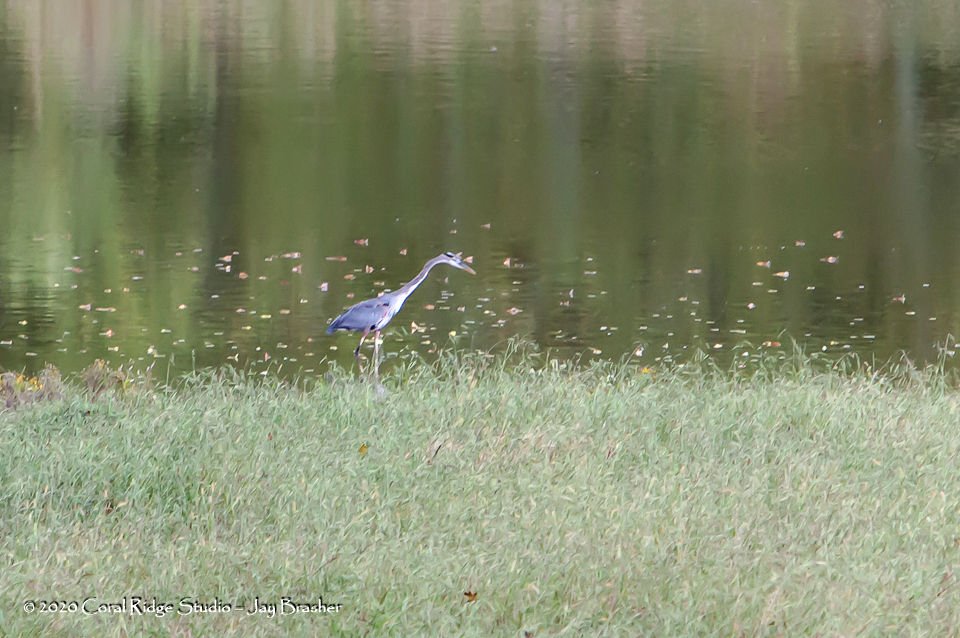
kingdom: Animalia
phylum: Chordata
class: Aves
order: Pelecaniformes
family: Ardeidae
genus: Ardea
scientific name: Ardea herodias
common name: Great blue heron
